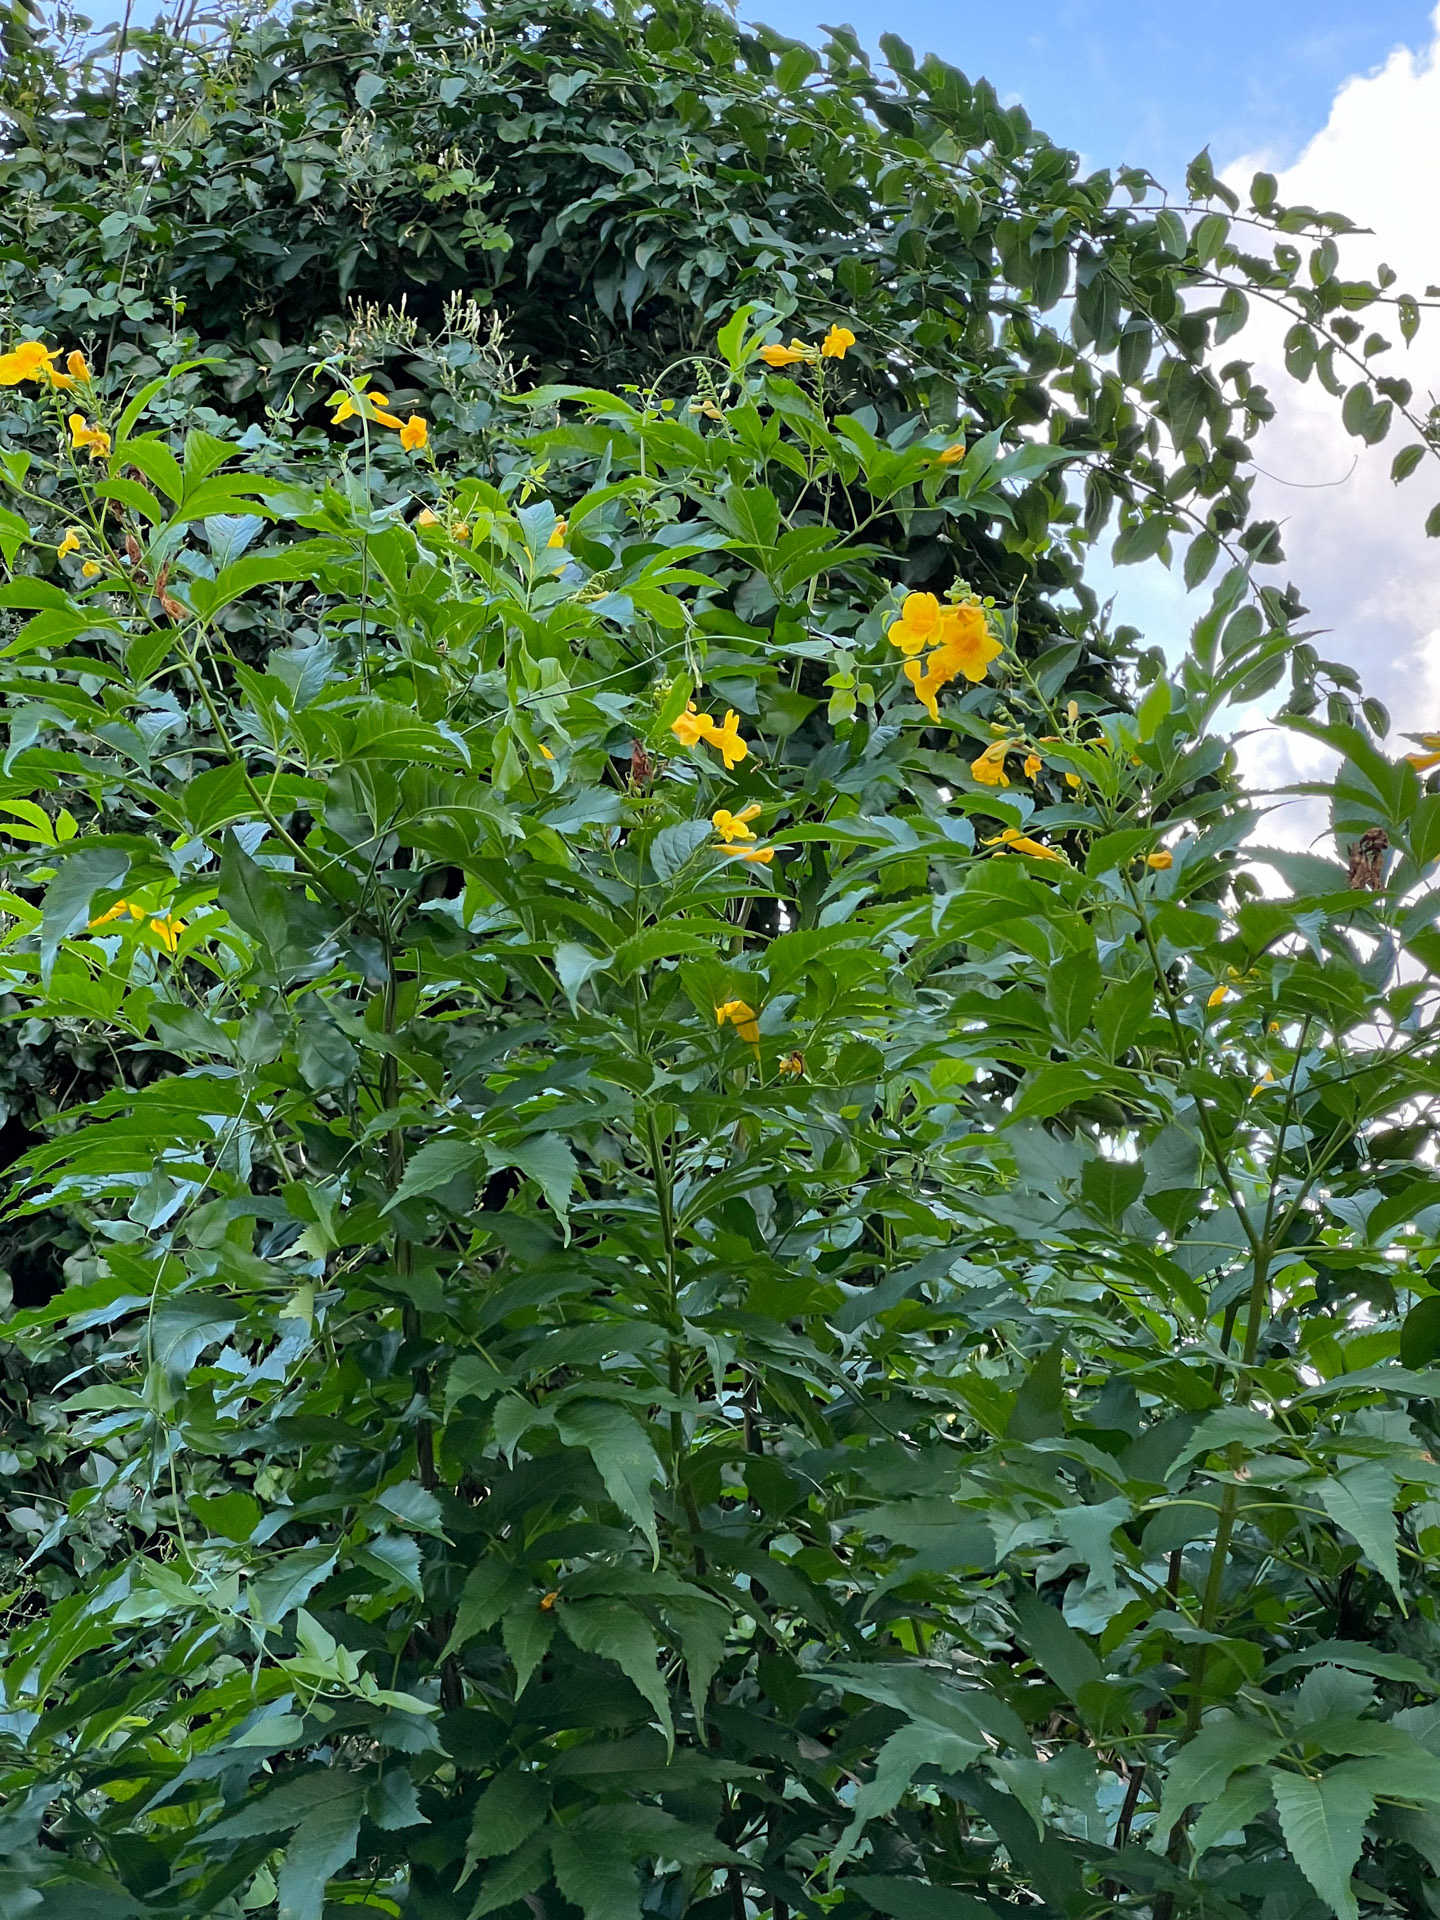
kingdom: Plantae
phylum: Tracheophyta
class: Magnoliopsida
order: Lamiales
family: Bignoniaceae
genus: Tecoma
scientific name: Tecoma stans
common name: Yellow trumpetbush
